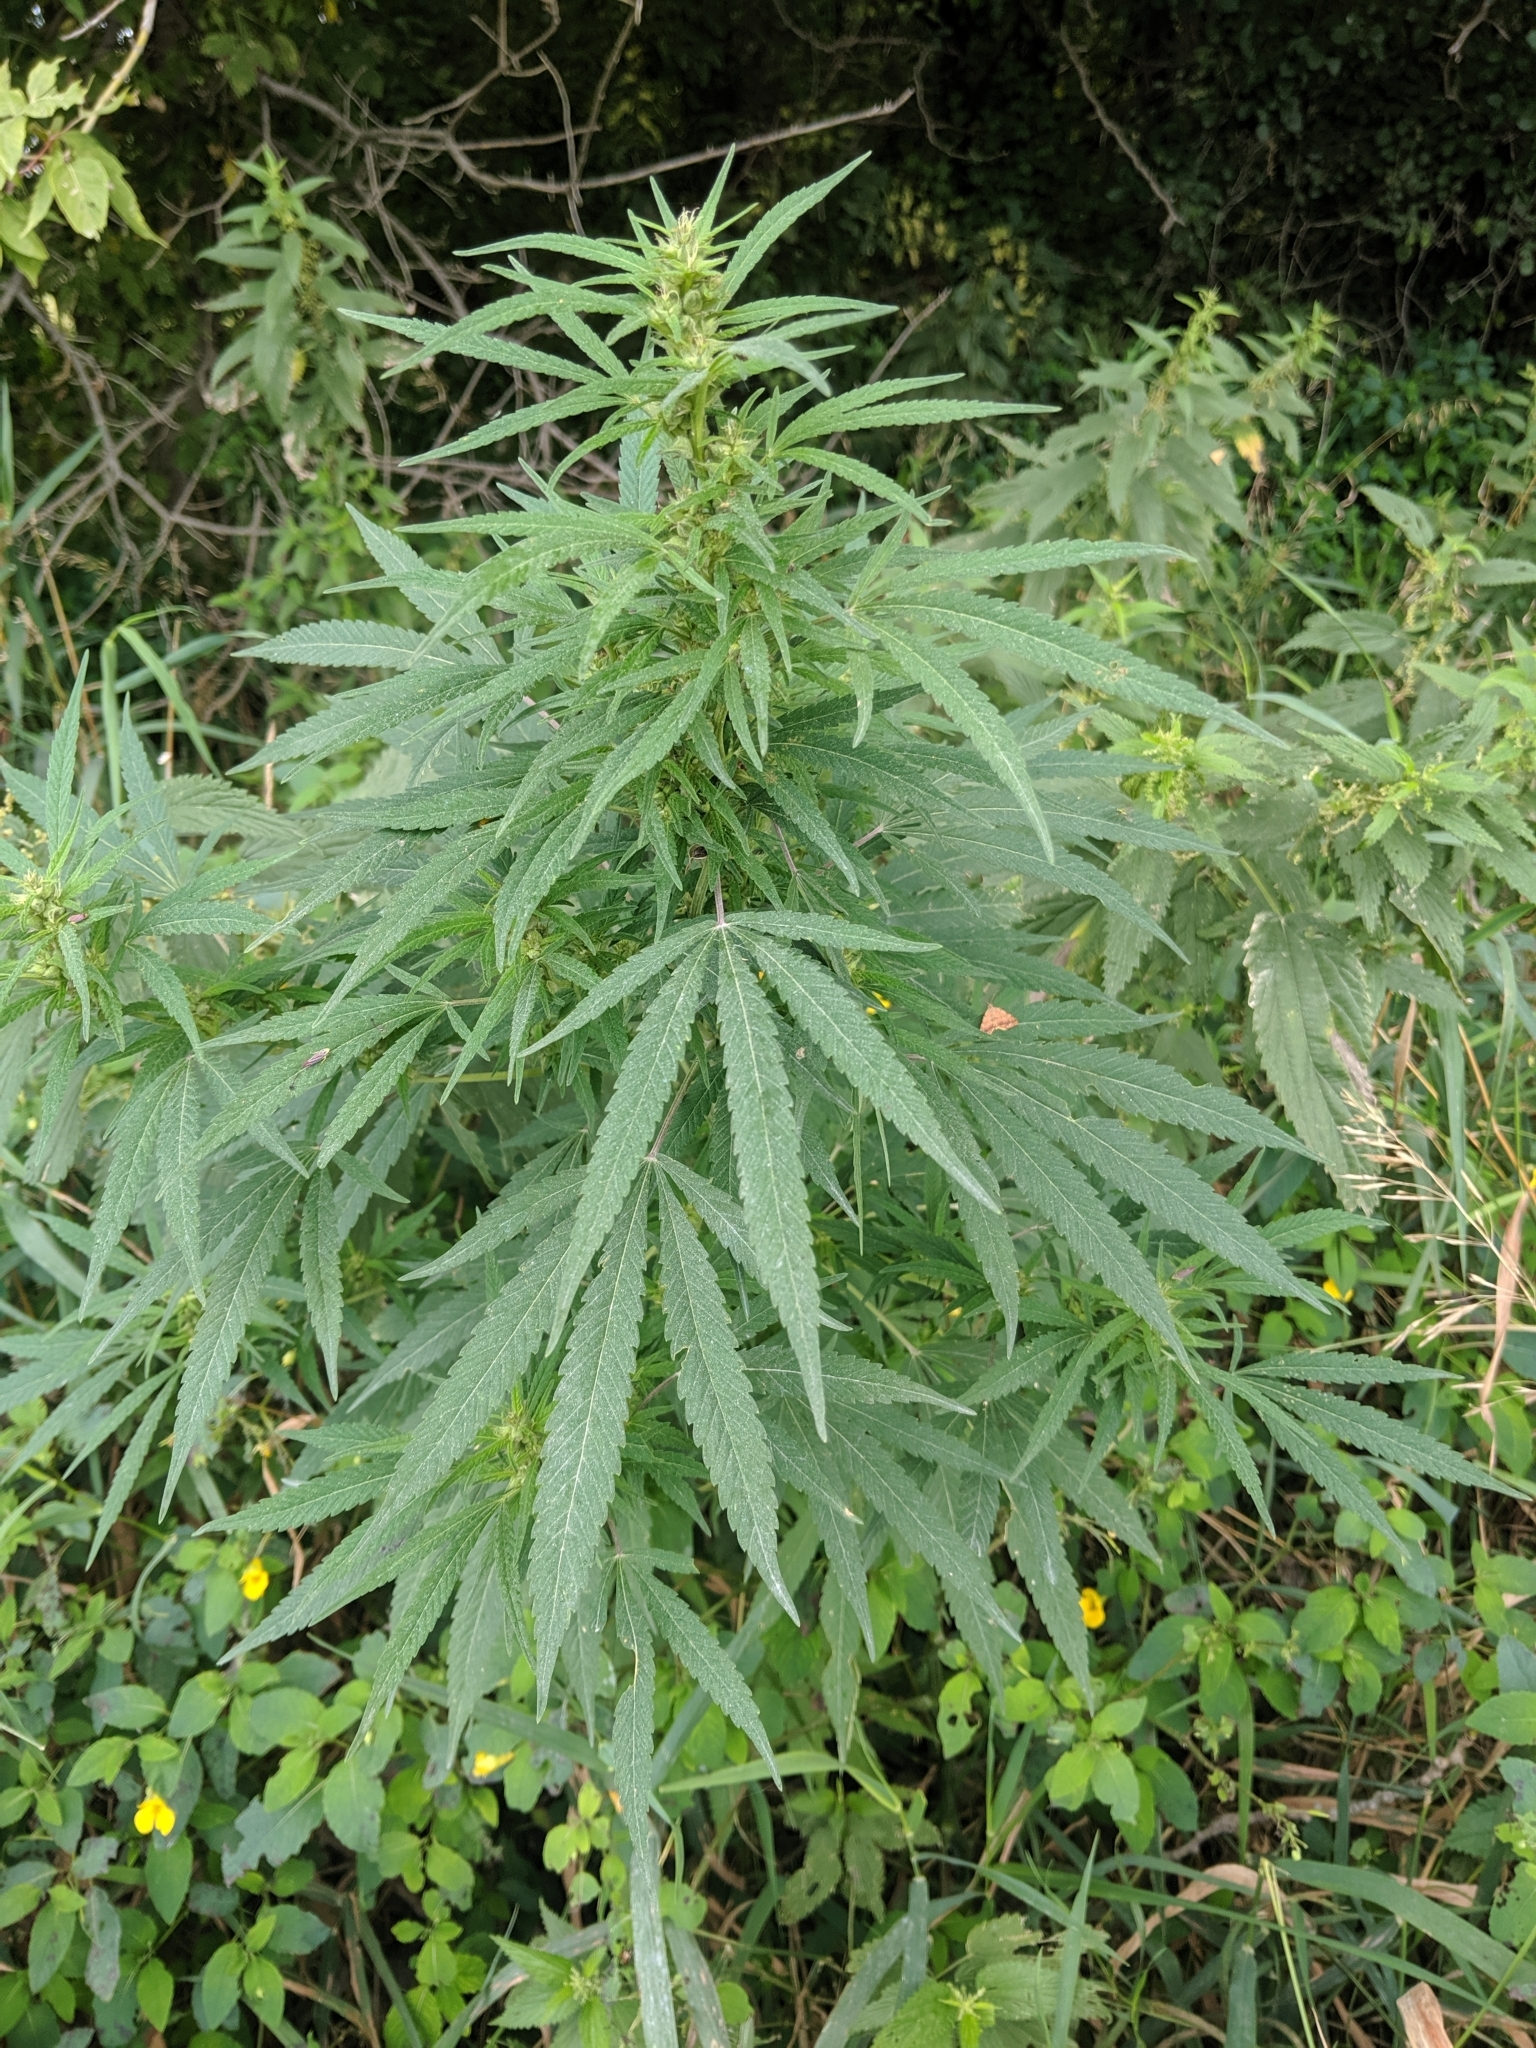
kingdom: Plantae
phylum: Tracheophyta
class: Magnoliopsida
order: Rosales
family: Cannabaceae
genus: Cannabis
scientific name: Cannabis sativa
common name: Hemp
